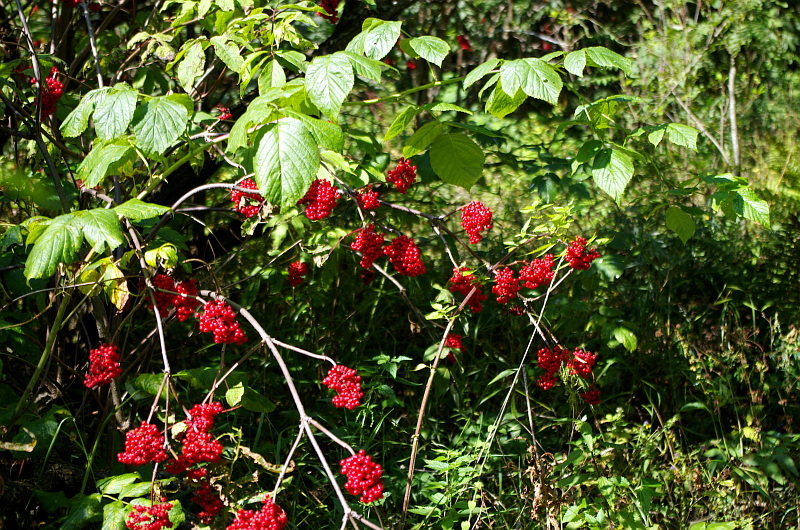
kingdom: Plantae
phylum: Tracheophyta
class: Magnoliopsida
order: Dipsacales
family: Viburnaceae
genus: Sambucus
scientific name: Sambucus racemosa
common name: Red-berried elder
